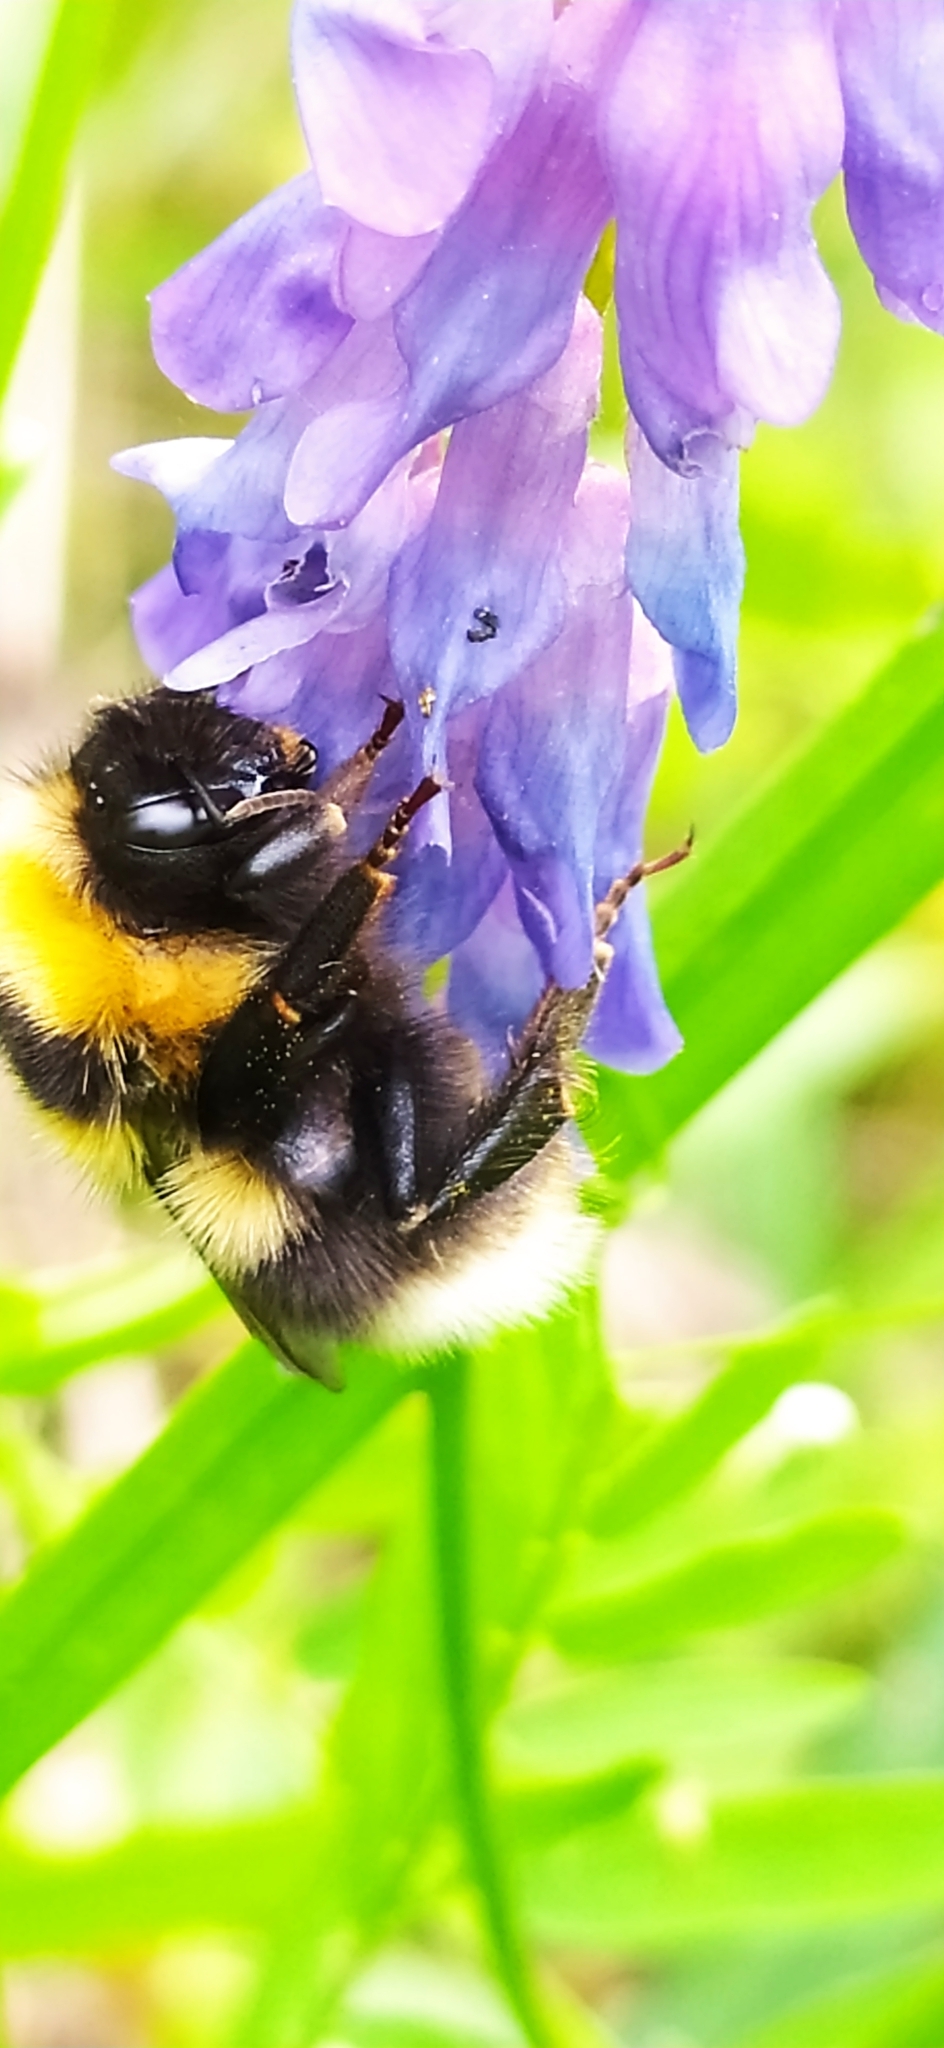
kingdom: Animalia
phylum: Arthropoda
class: Insecta
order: Hymenoptera
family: Apidae
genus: Bombus
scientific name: Bombus confusus
